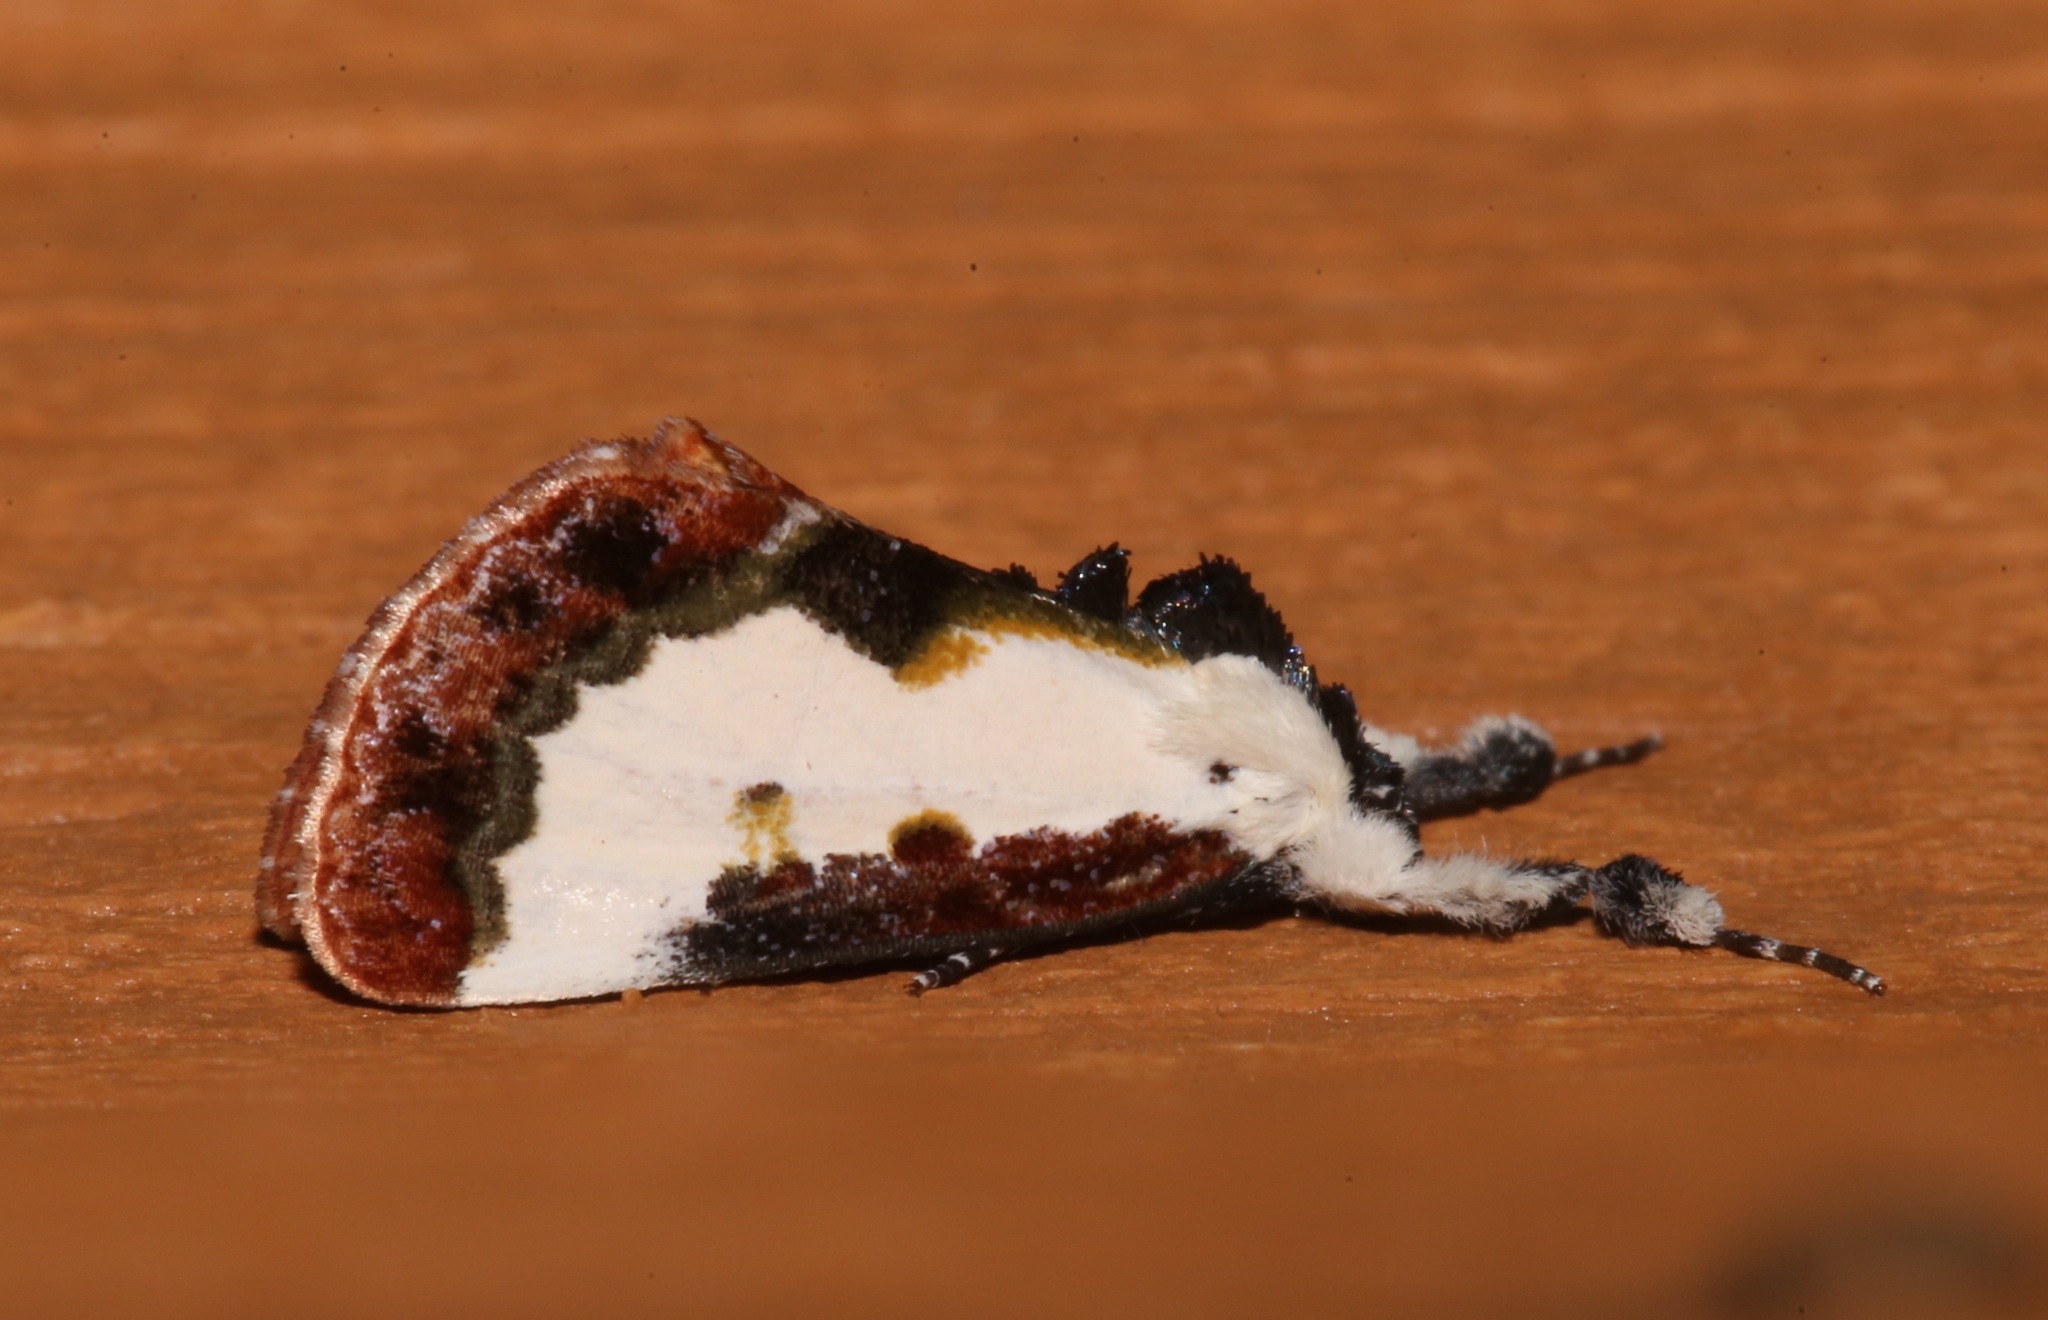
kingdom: Animalia
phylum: Arthropoda
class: Insecta
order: Lepidoptera
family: Noctuidae
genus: Eudryas
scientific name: Eudryas unio
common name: Pearly wood-nymph
